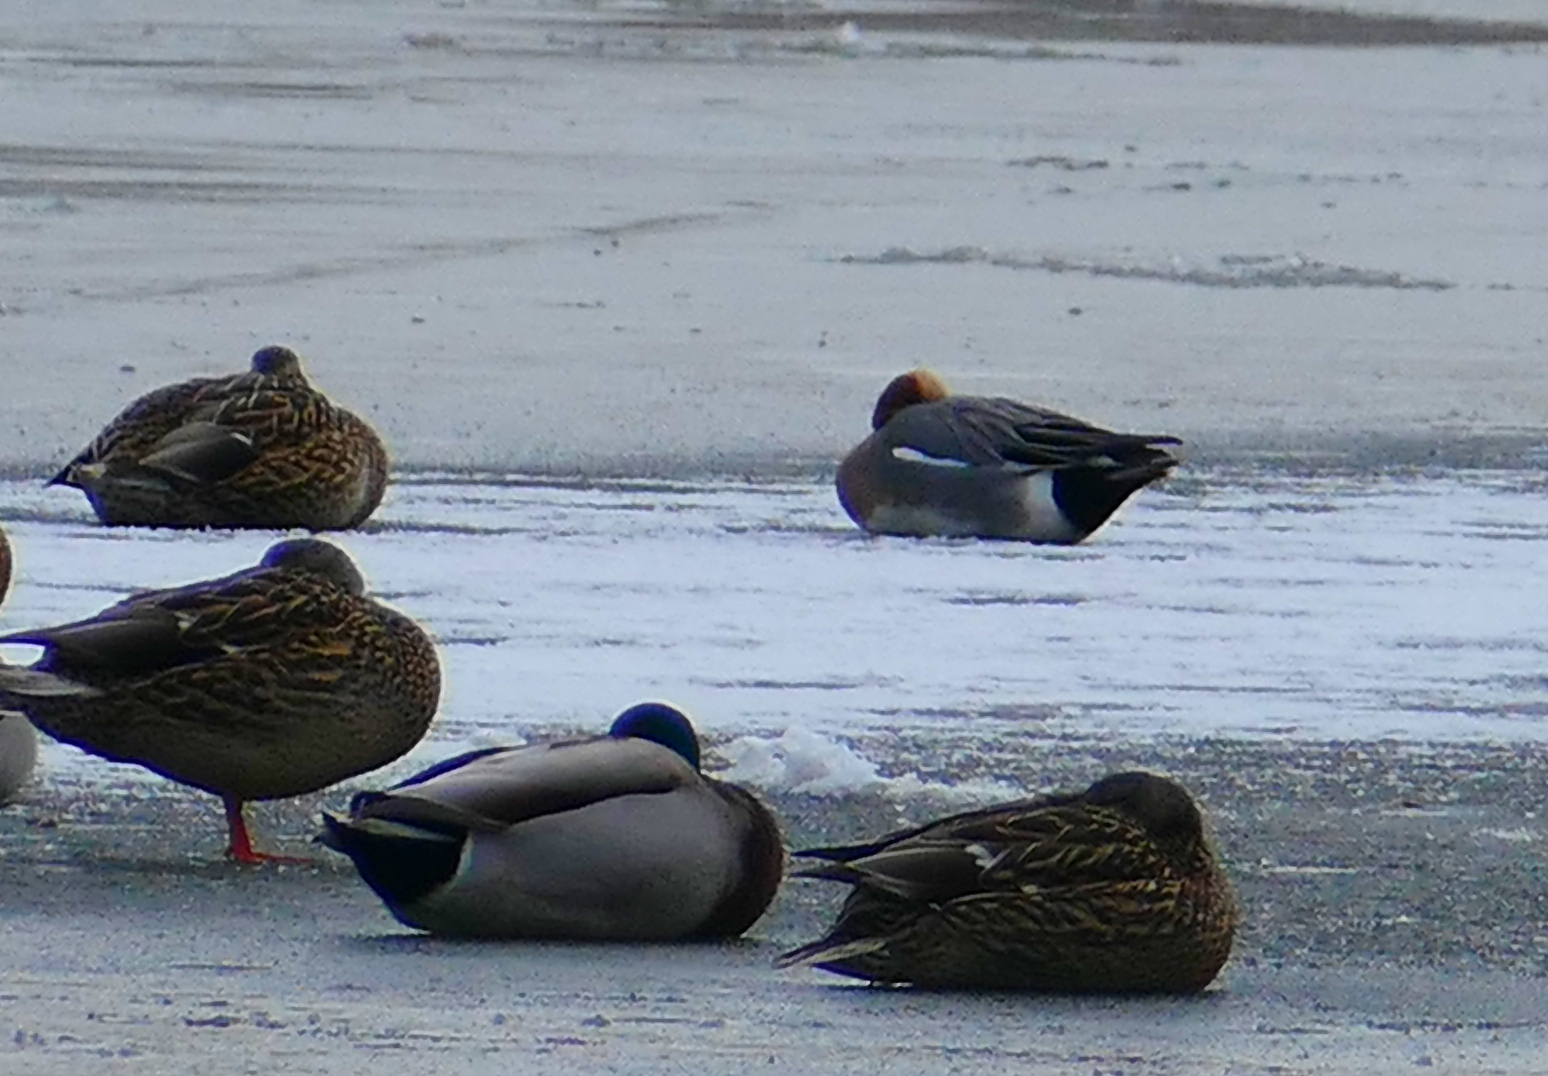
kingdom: Animalia
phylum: Chordata
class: Aves
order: Anseriformes
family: Anatidae
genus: Mareca
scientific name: Mareca penelope
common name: Eurasian wigeon
